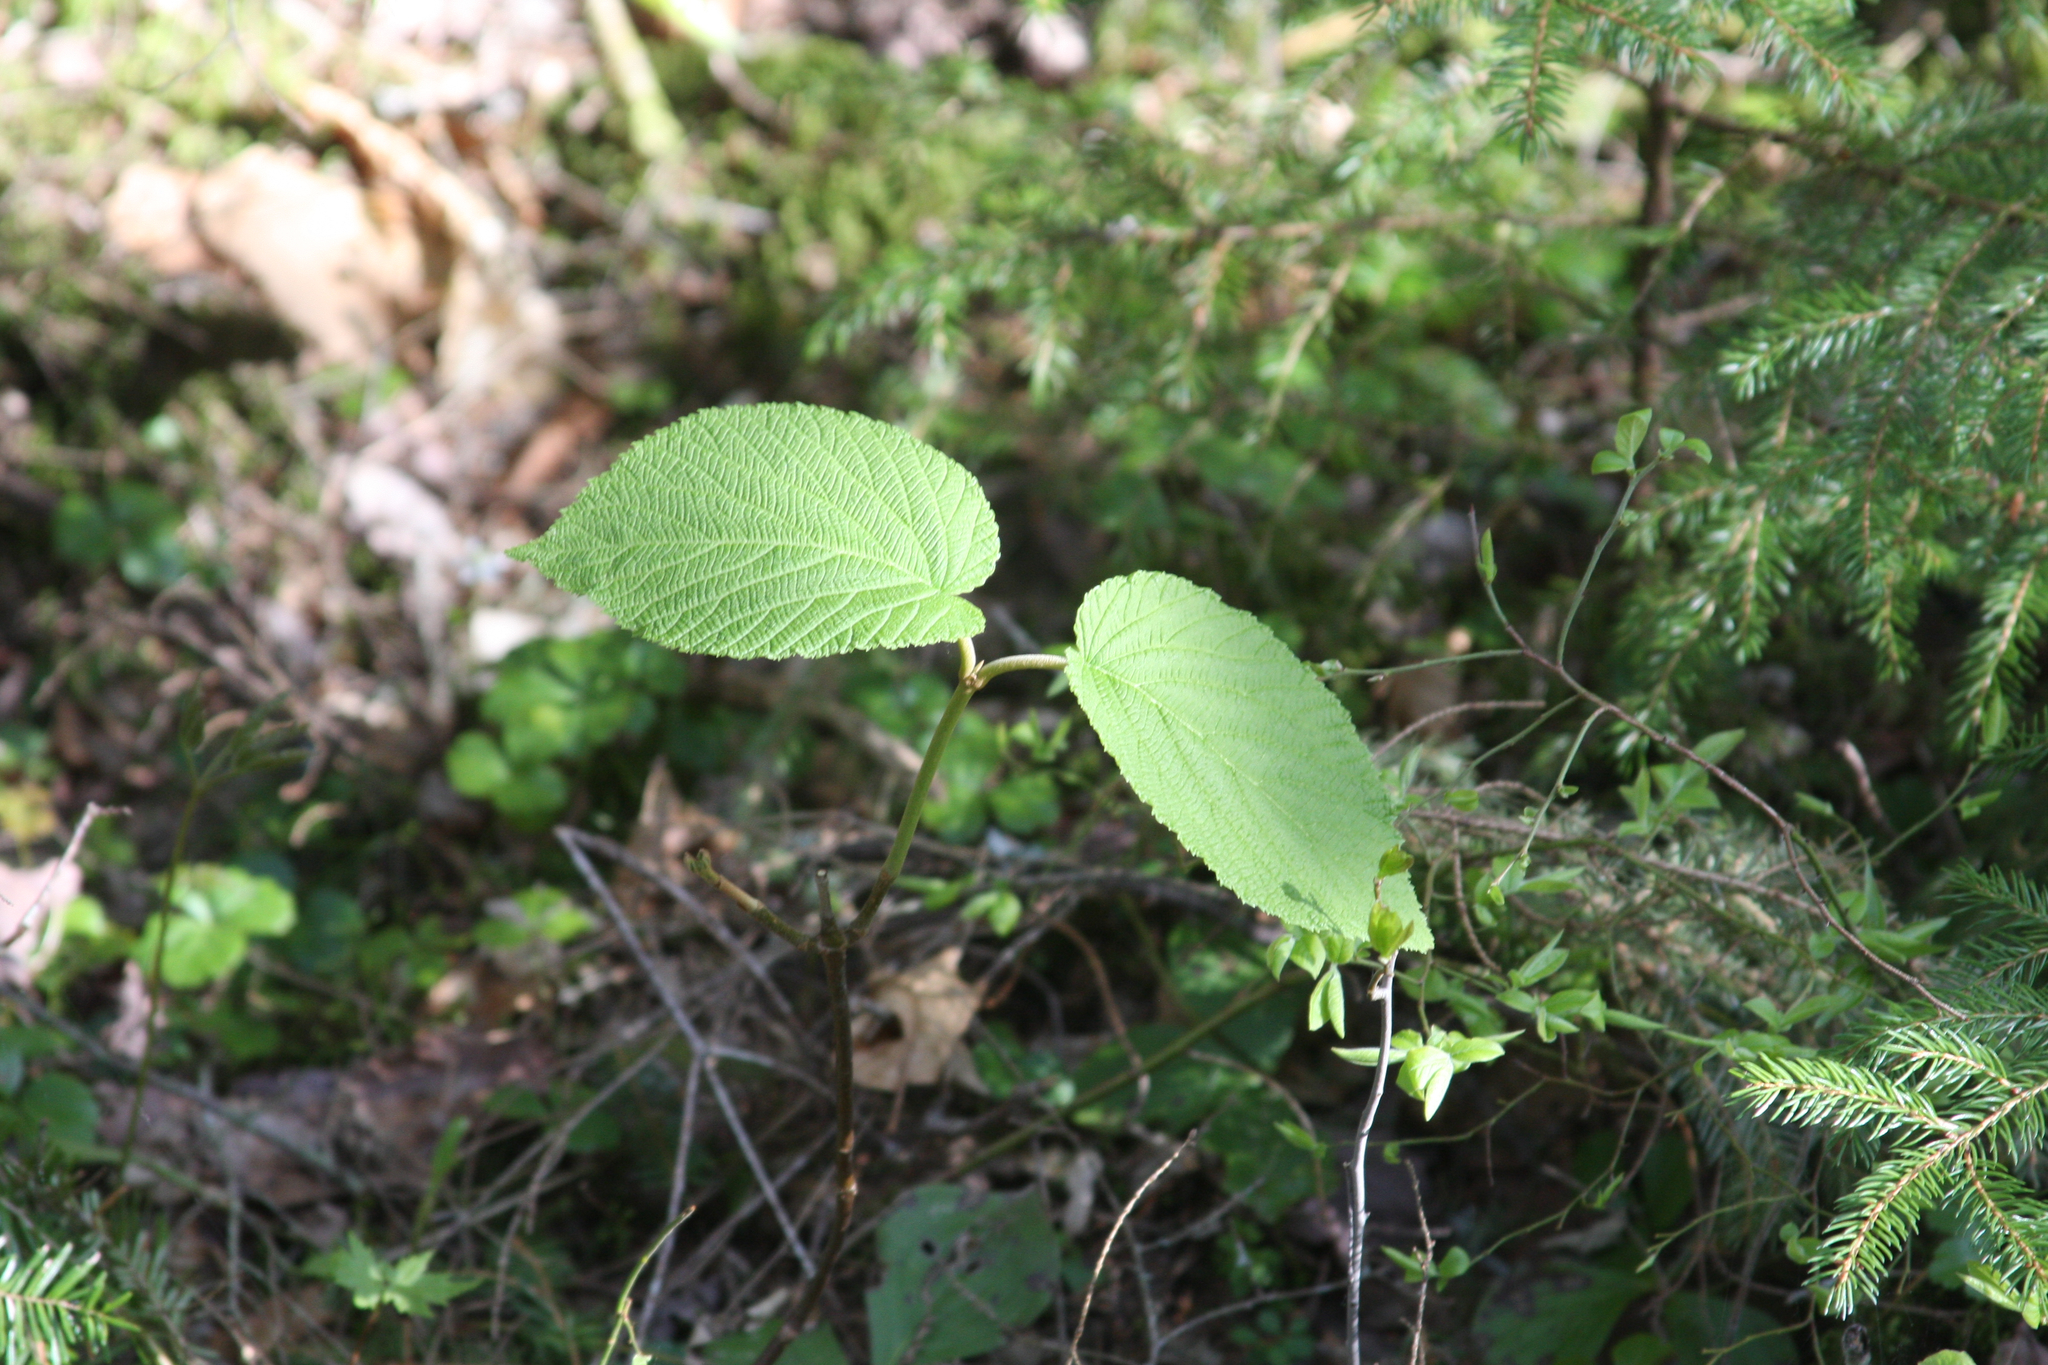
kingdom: Plantae
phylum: Tracheophyta
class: Magnoliopsida
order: Dipsacales
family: Viburnaceae
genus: Viburnum
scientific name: Viburnum lantanoides
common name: Hobblebush
